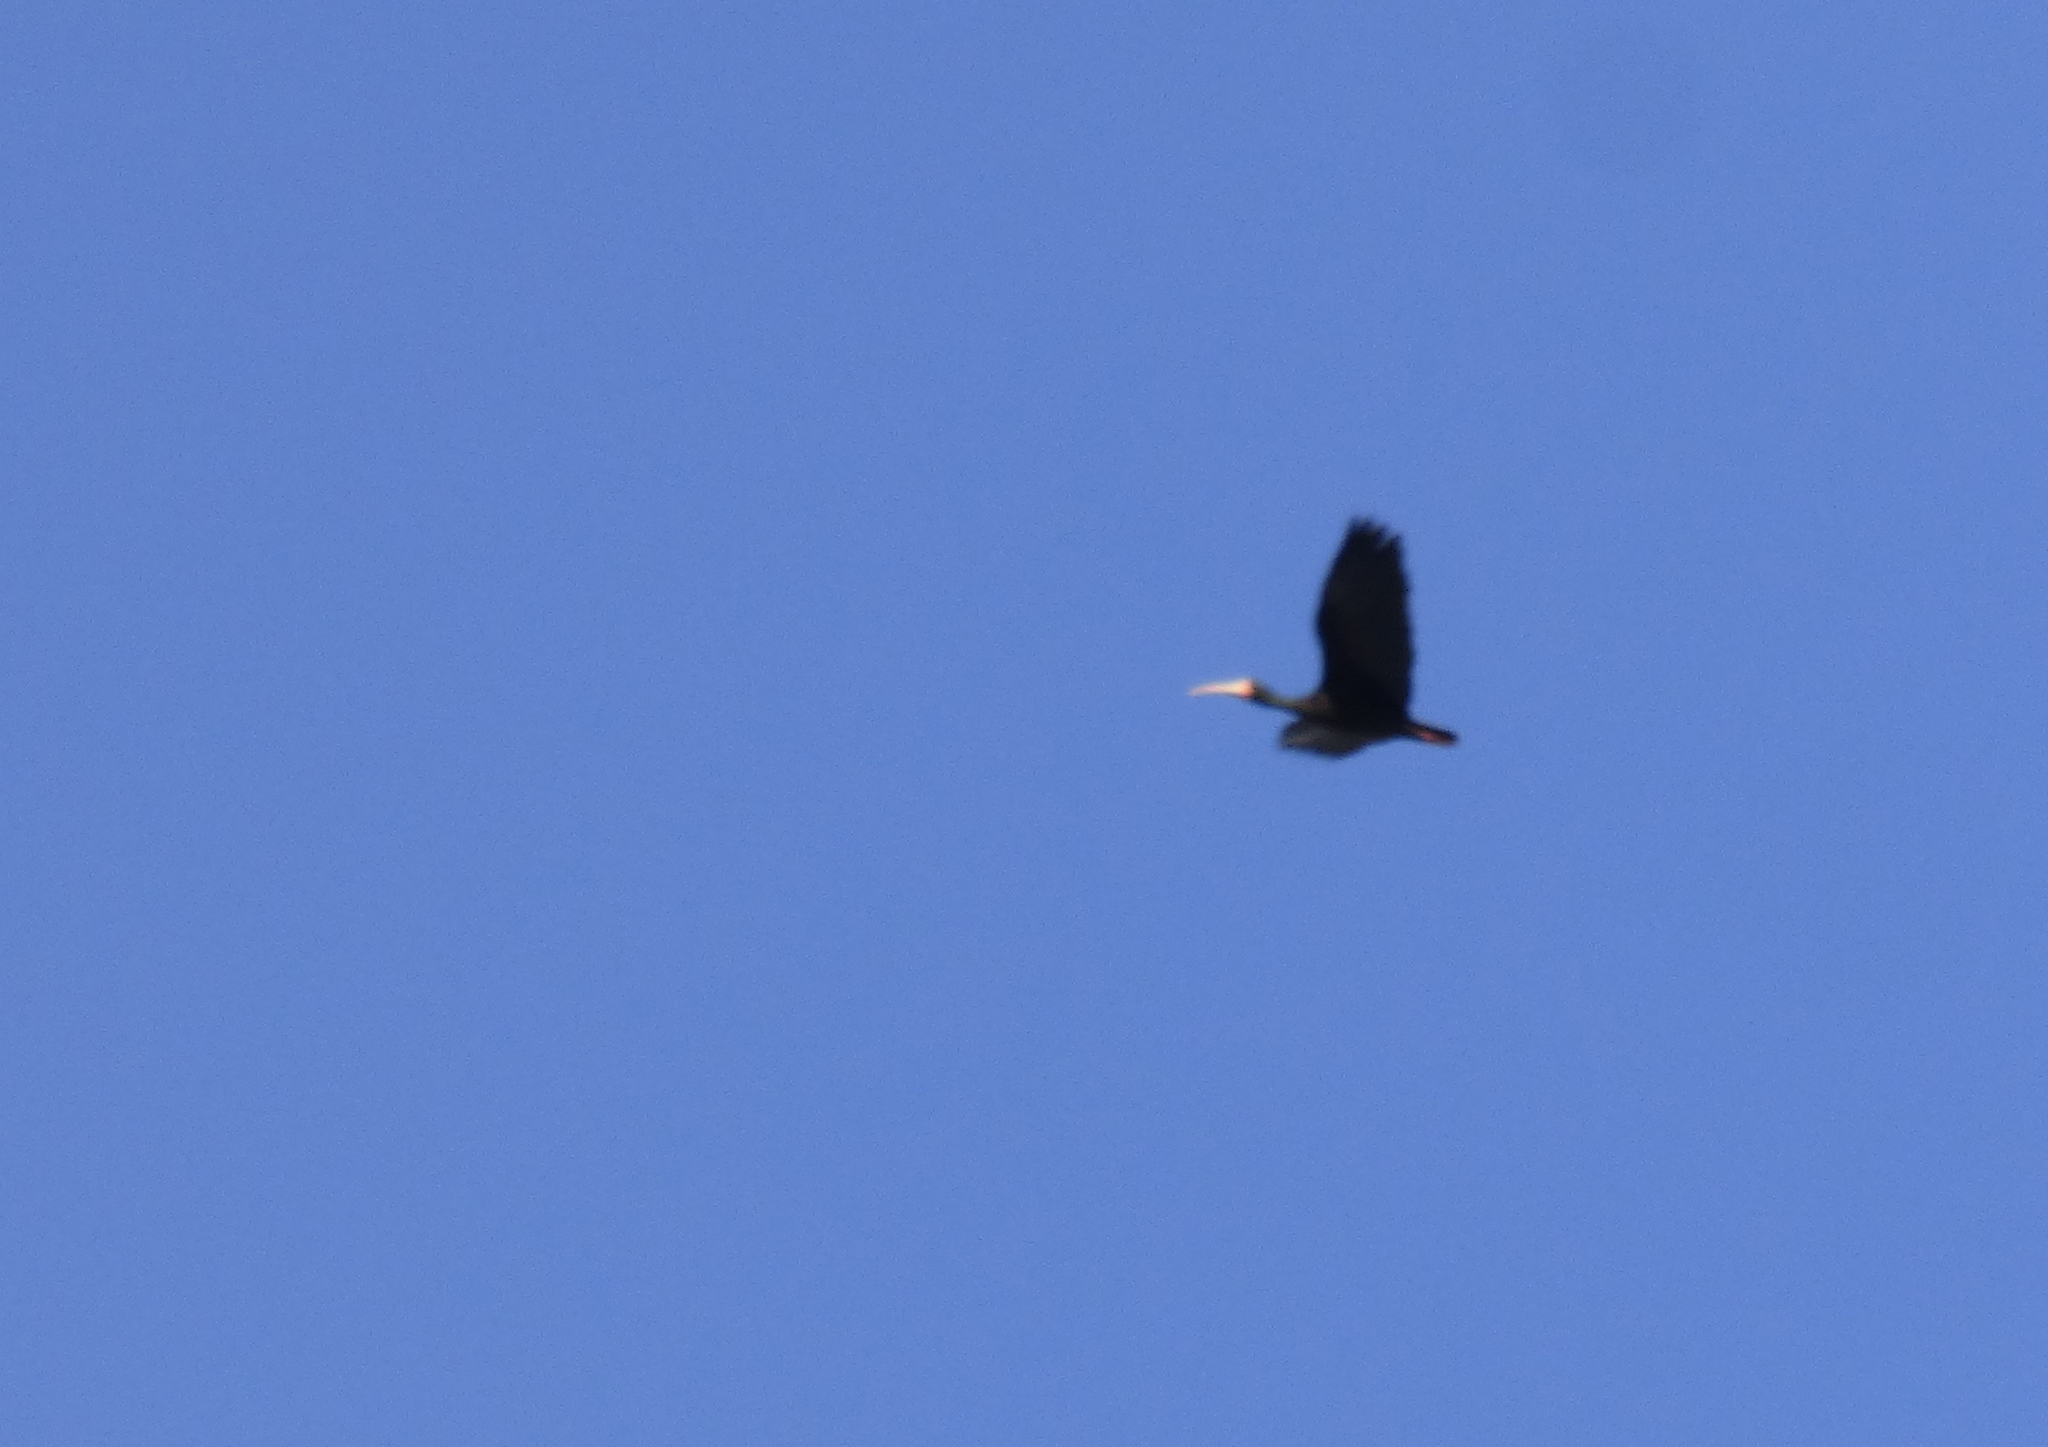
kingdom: Animalia
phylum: Chordata
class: Aves
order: Pelecaniformes
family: Threskiornithidae
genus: Phimosus
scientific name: Phimosus infuscatus
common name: Bare-faced ibis
